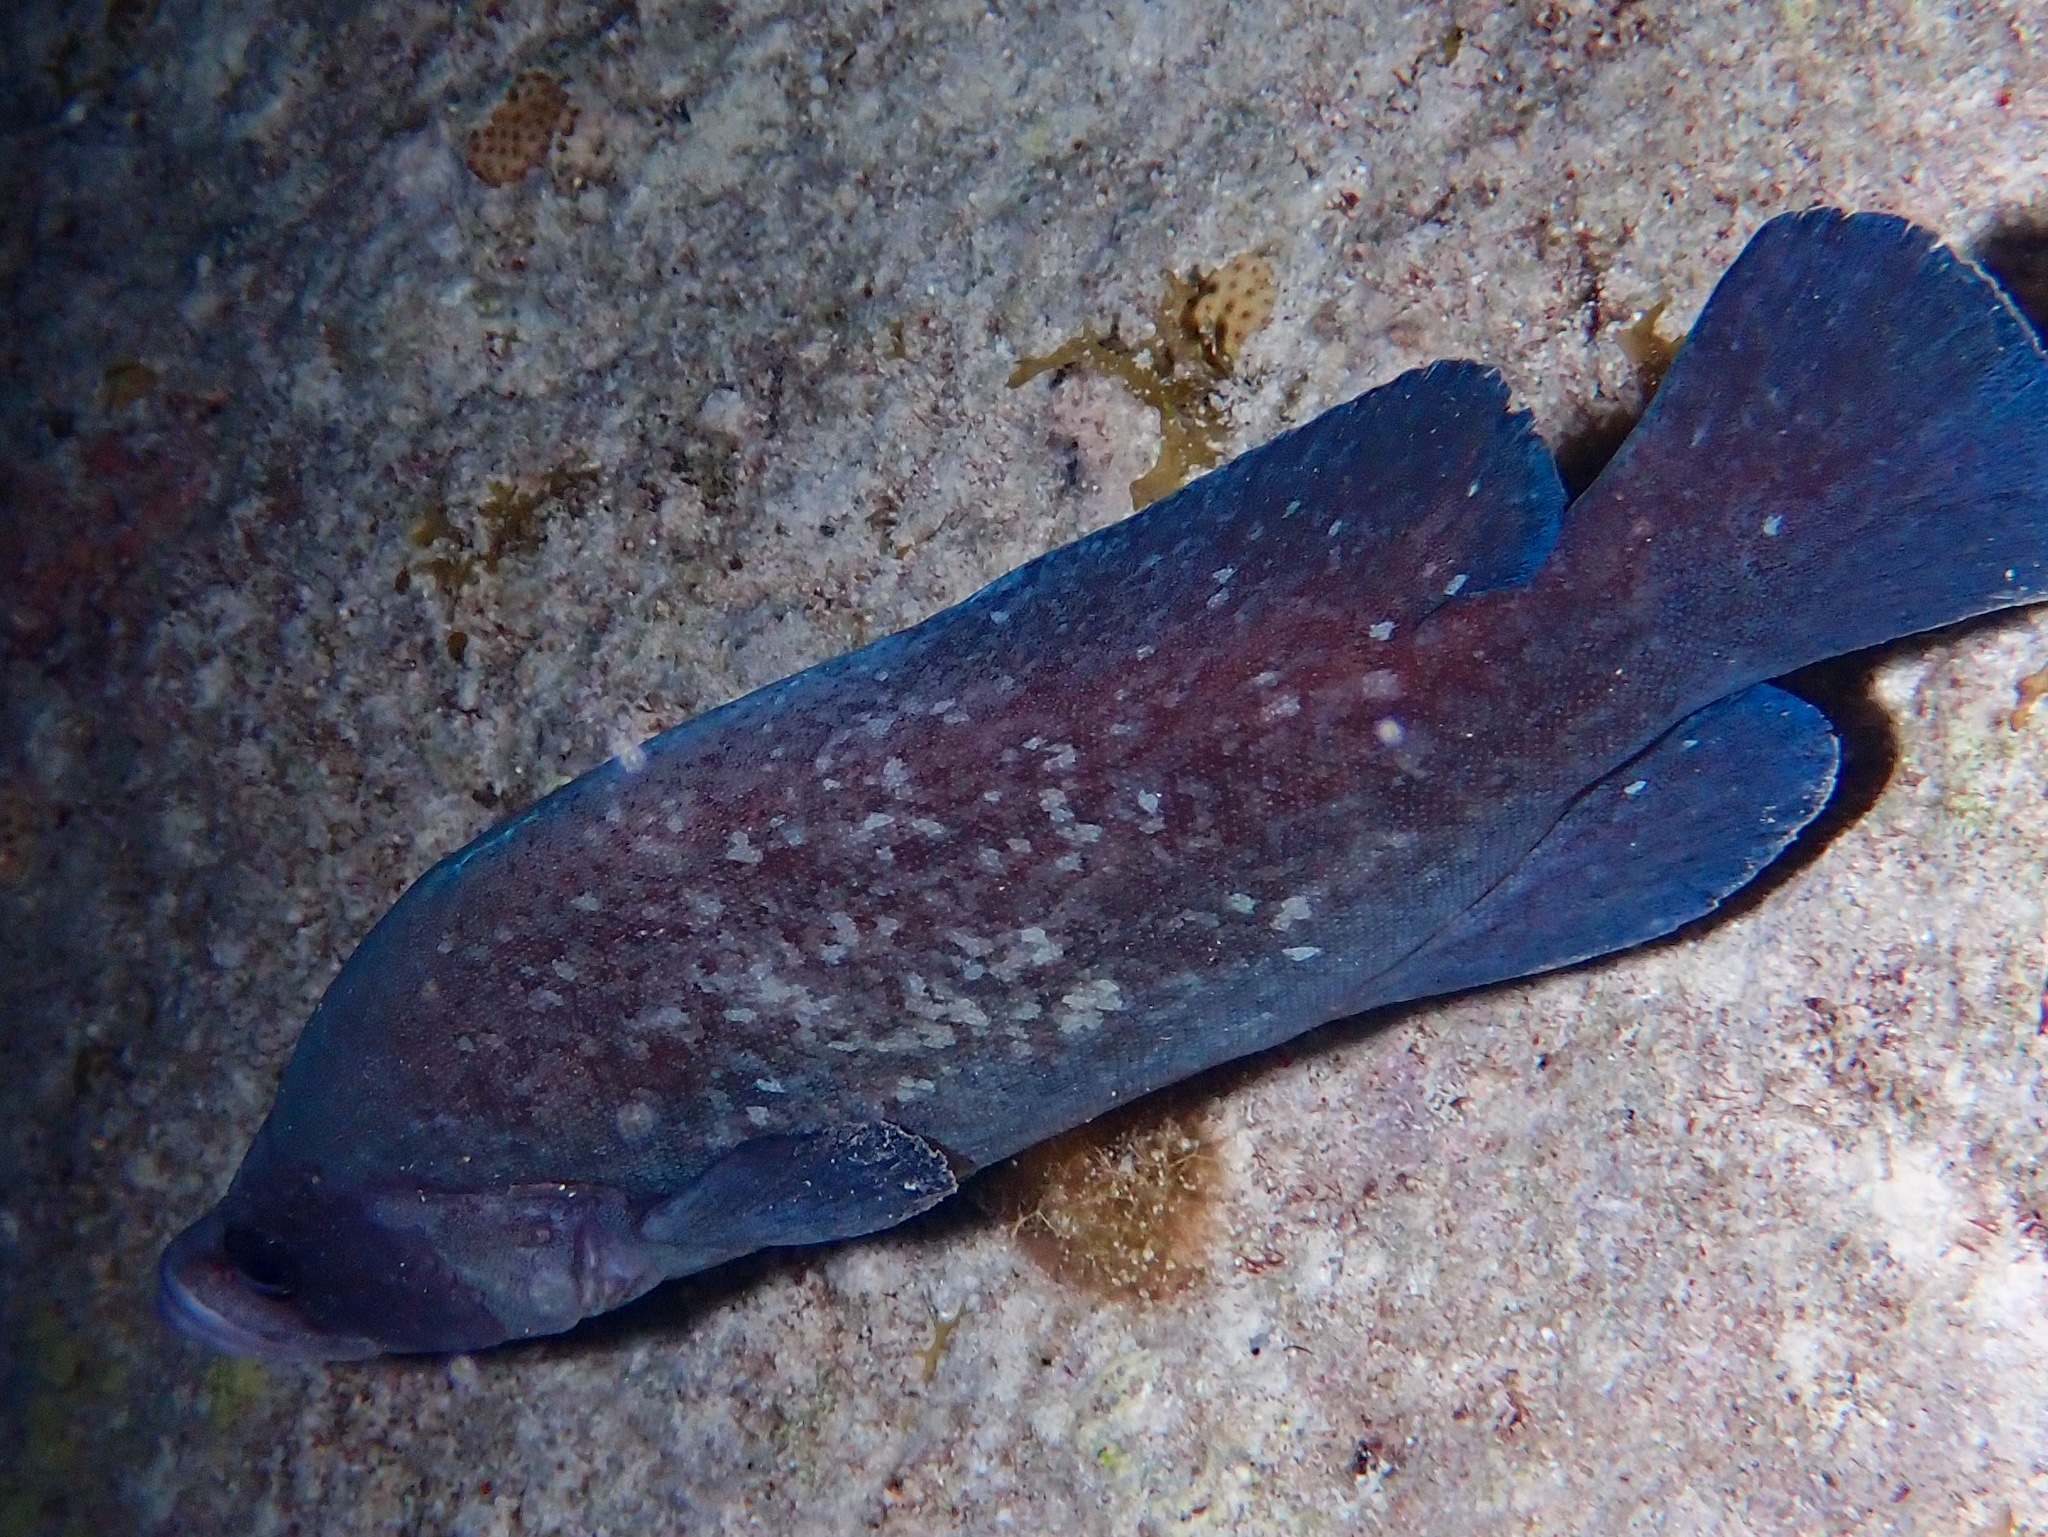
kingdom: Animalia
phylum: Chordata
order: Perciformes
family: Serranidae
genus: Rypticus
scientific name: Rypticus saponaceus
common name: Soapfish
